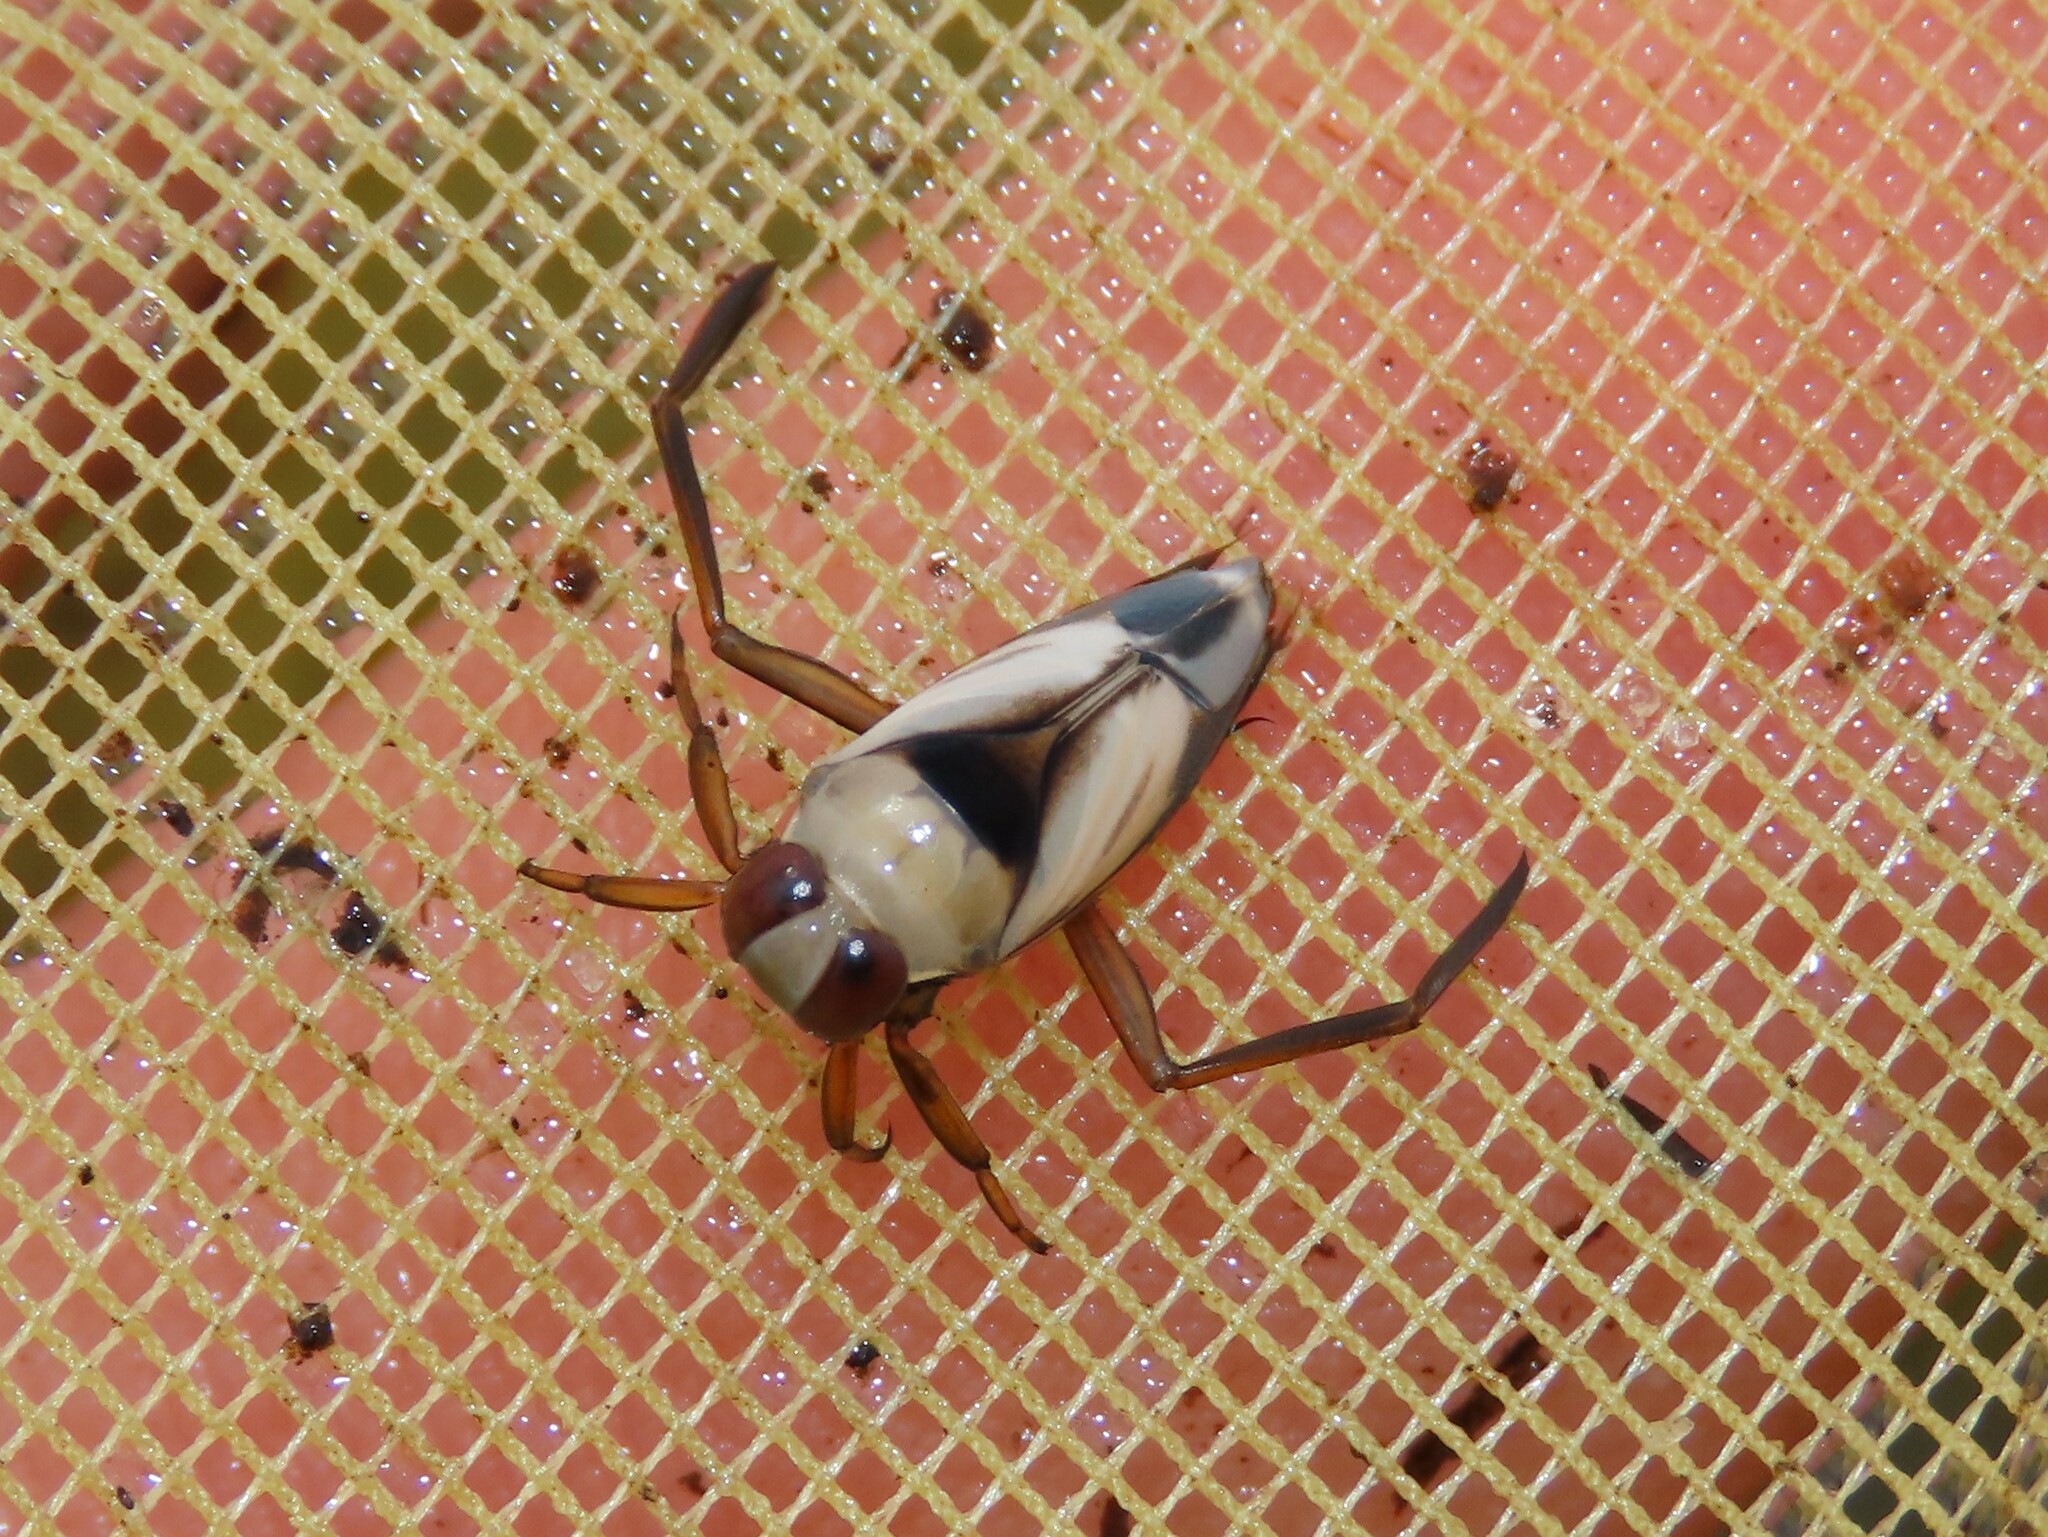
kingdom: Animalia
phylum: Arthropoda
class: Insecta
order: Hemiptera
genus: Paranecta
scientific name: Paranecta
